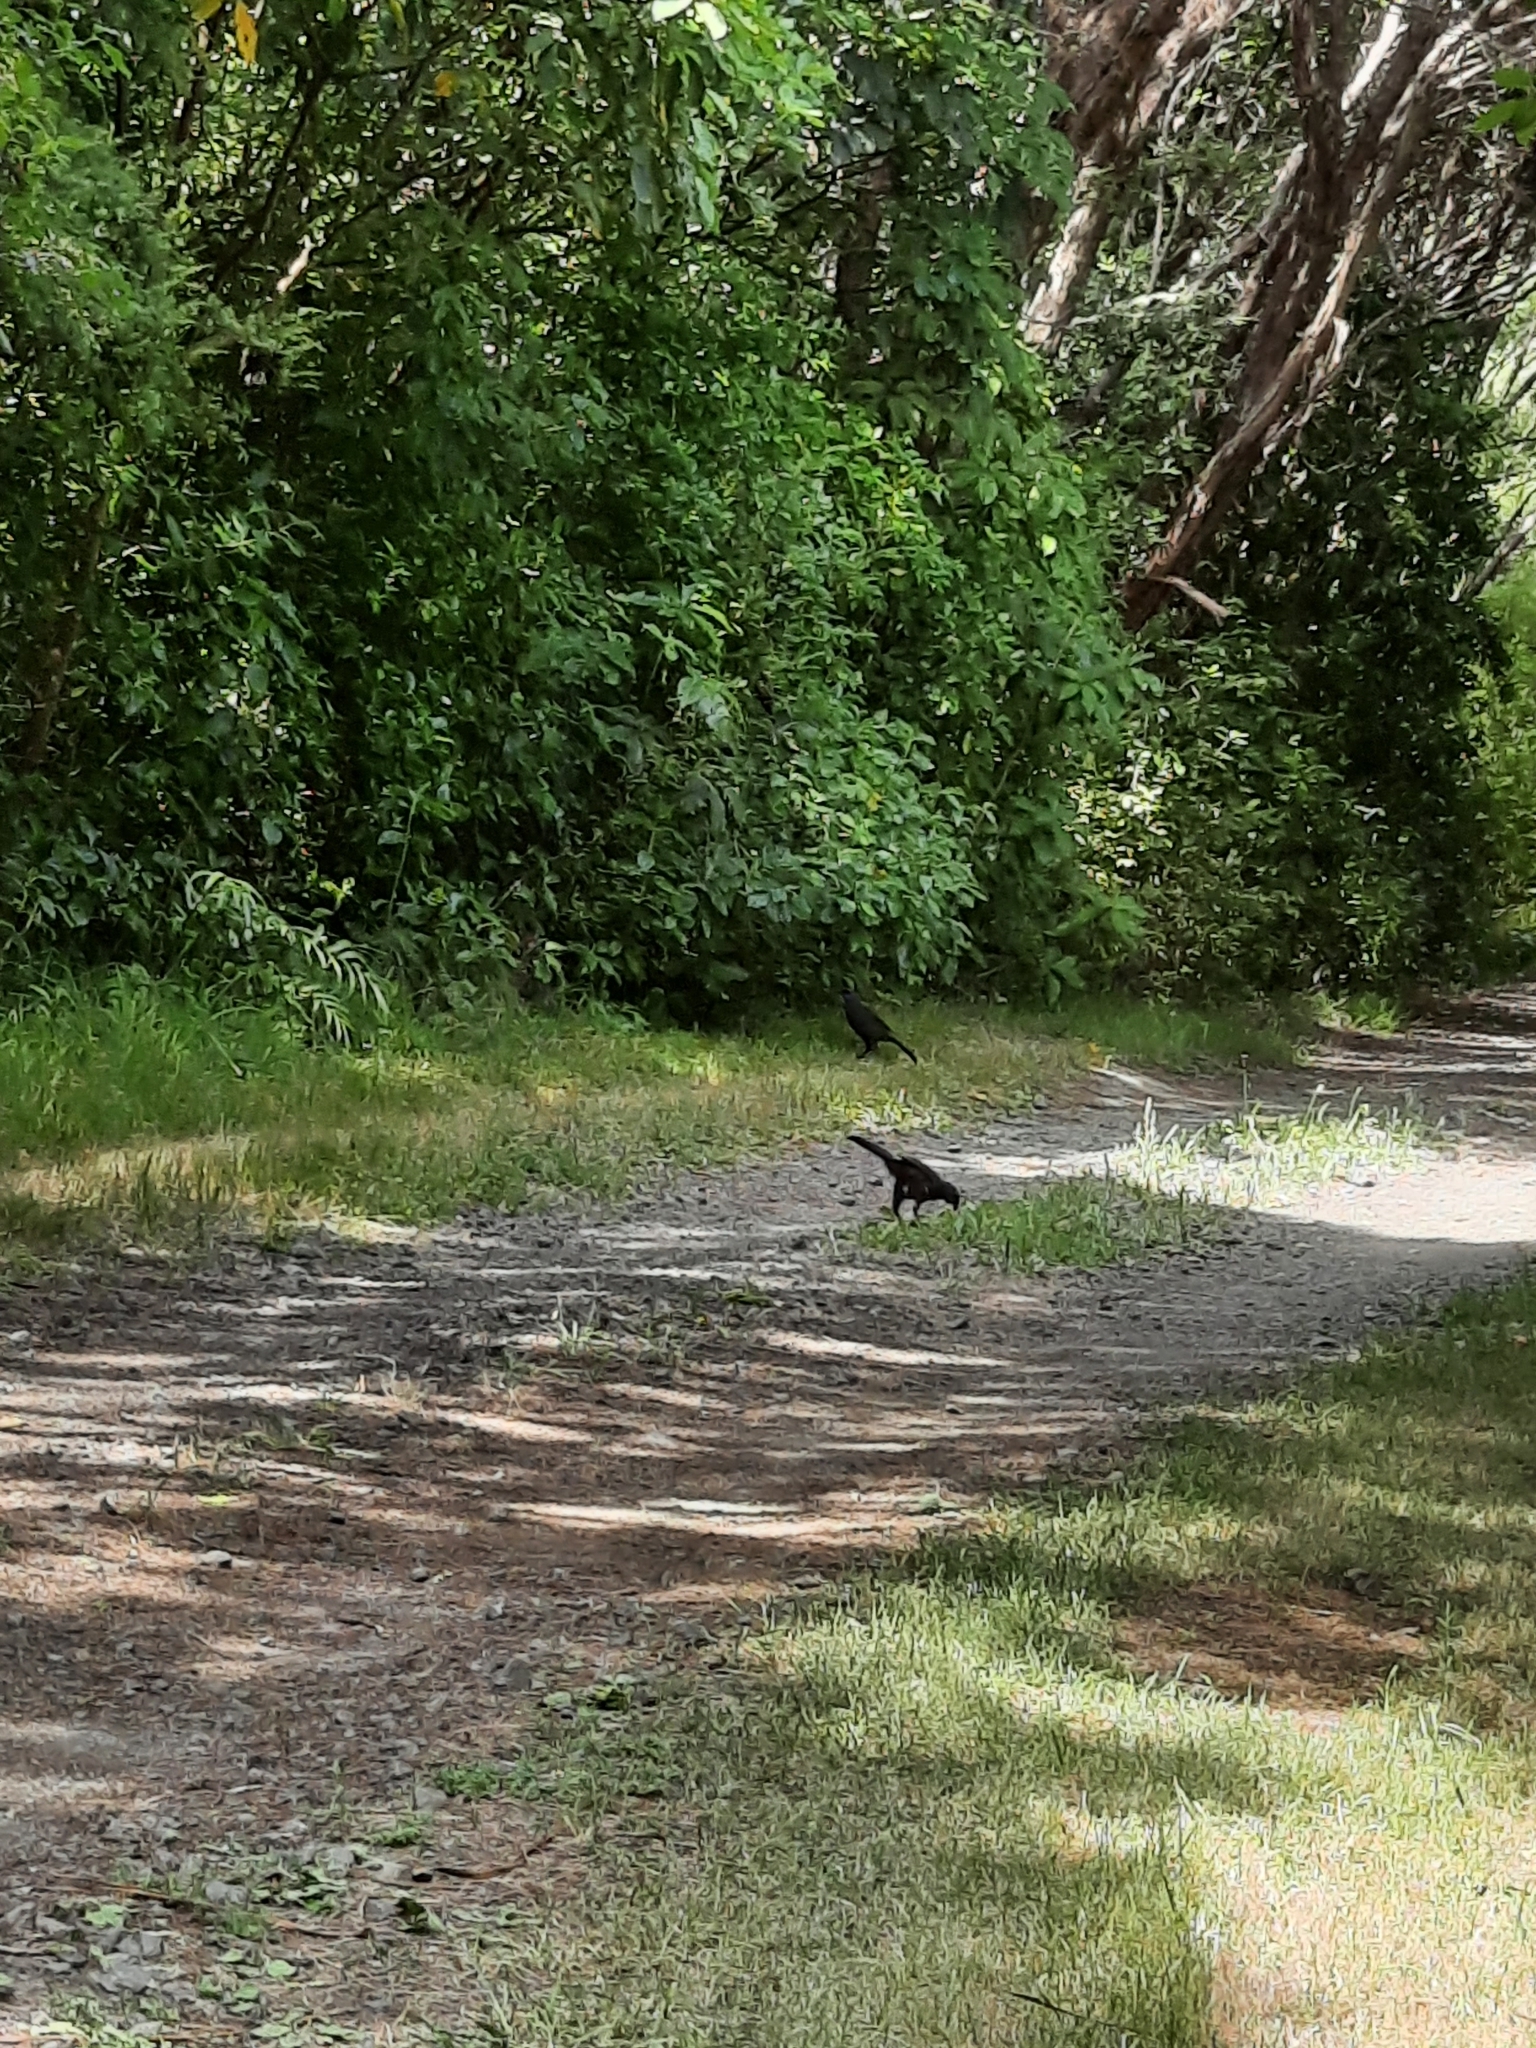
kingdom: Animalia
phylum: Chordata
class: Aves
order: Passeriformes
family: Callaeatidae
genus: Callaeas
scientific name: Callaeas cinereus
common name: South island kokako
